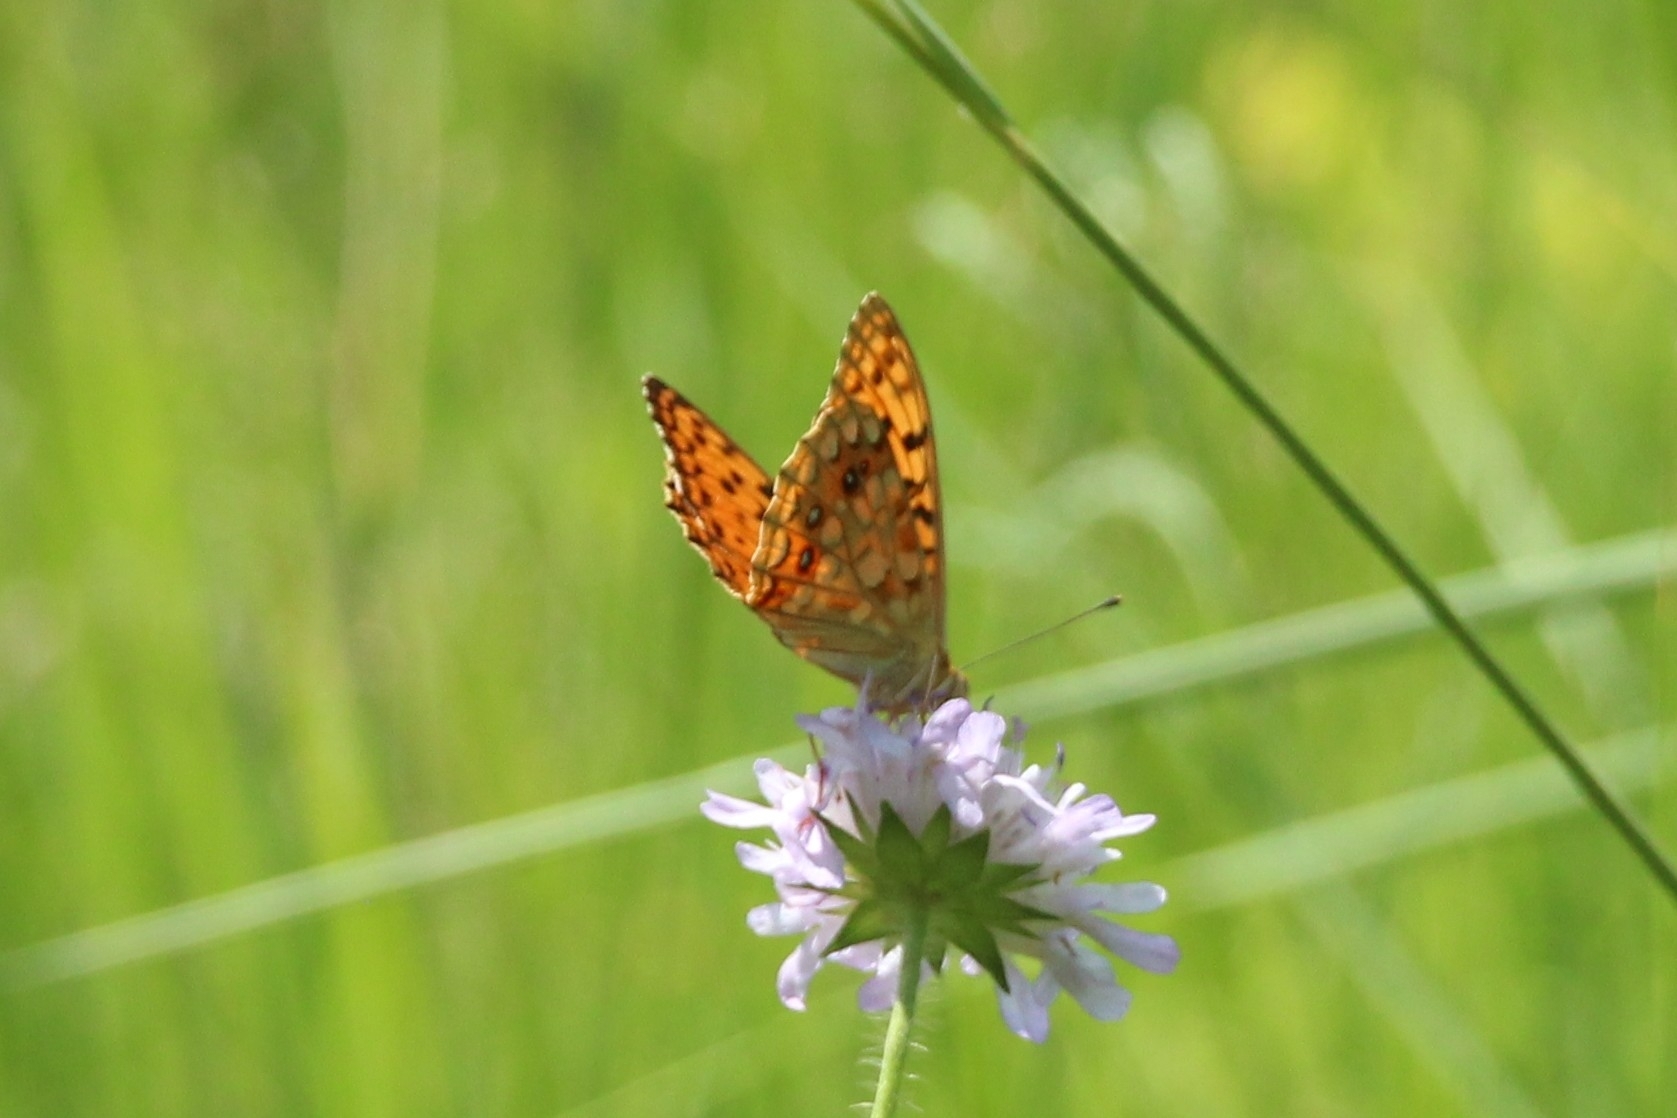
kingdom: Animalia
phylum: Arthropoda
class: Insecta
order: Lepidoptera
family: Nymphalidae
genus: Fabriciana
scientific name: Fabriciana adippe
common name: High brown fritillary
